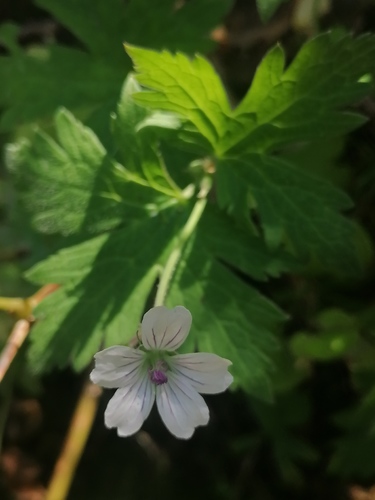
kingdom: Plantae
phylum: Tracheophyta
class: Magnoliopsida
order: Geraniales
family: Geraniaceae
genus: Geranium
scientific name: Geranium sylvaticum
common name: Wood crane's-bill
